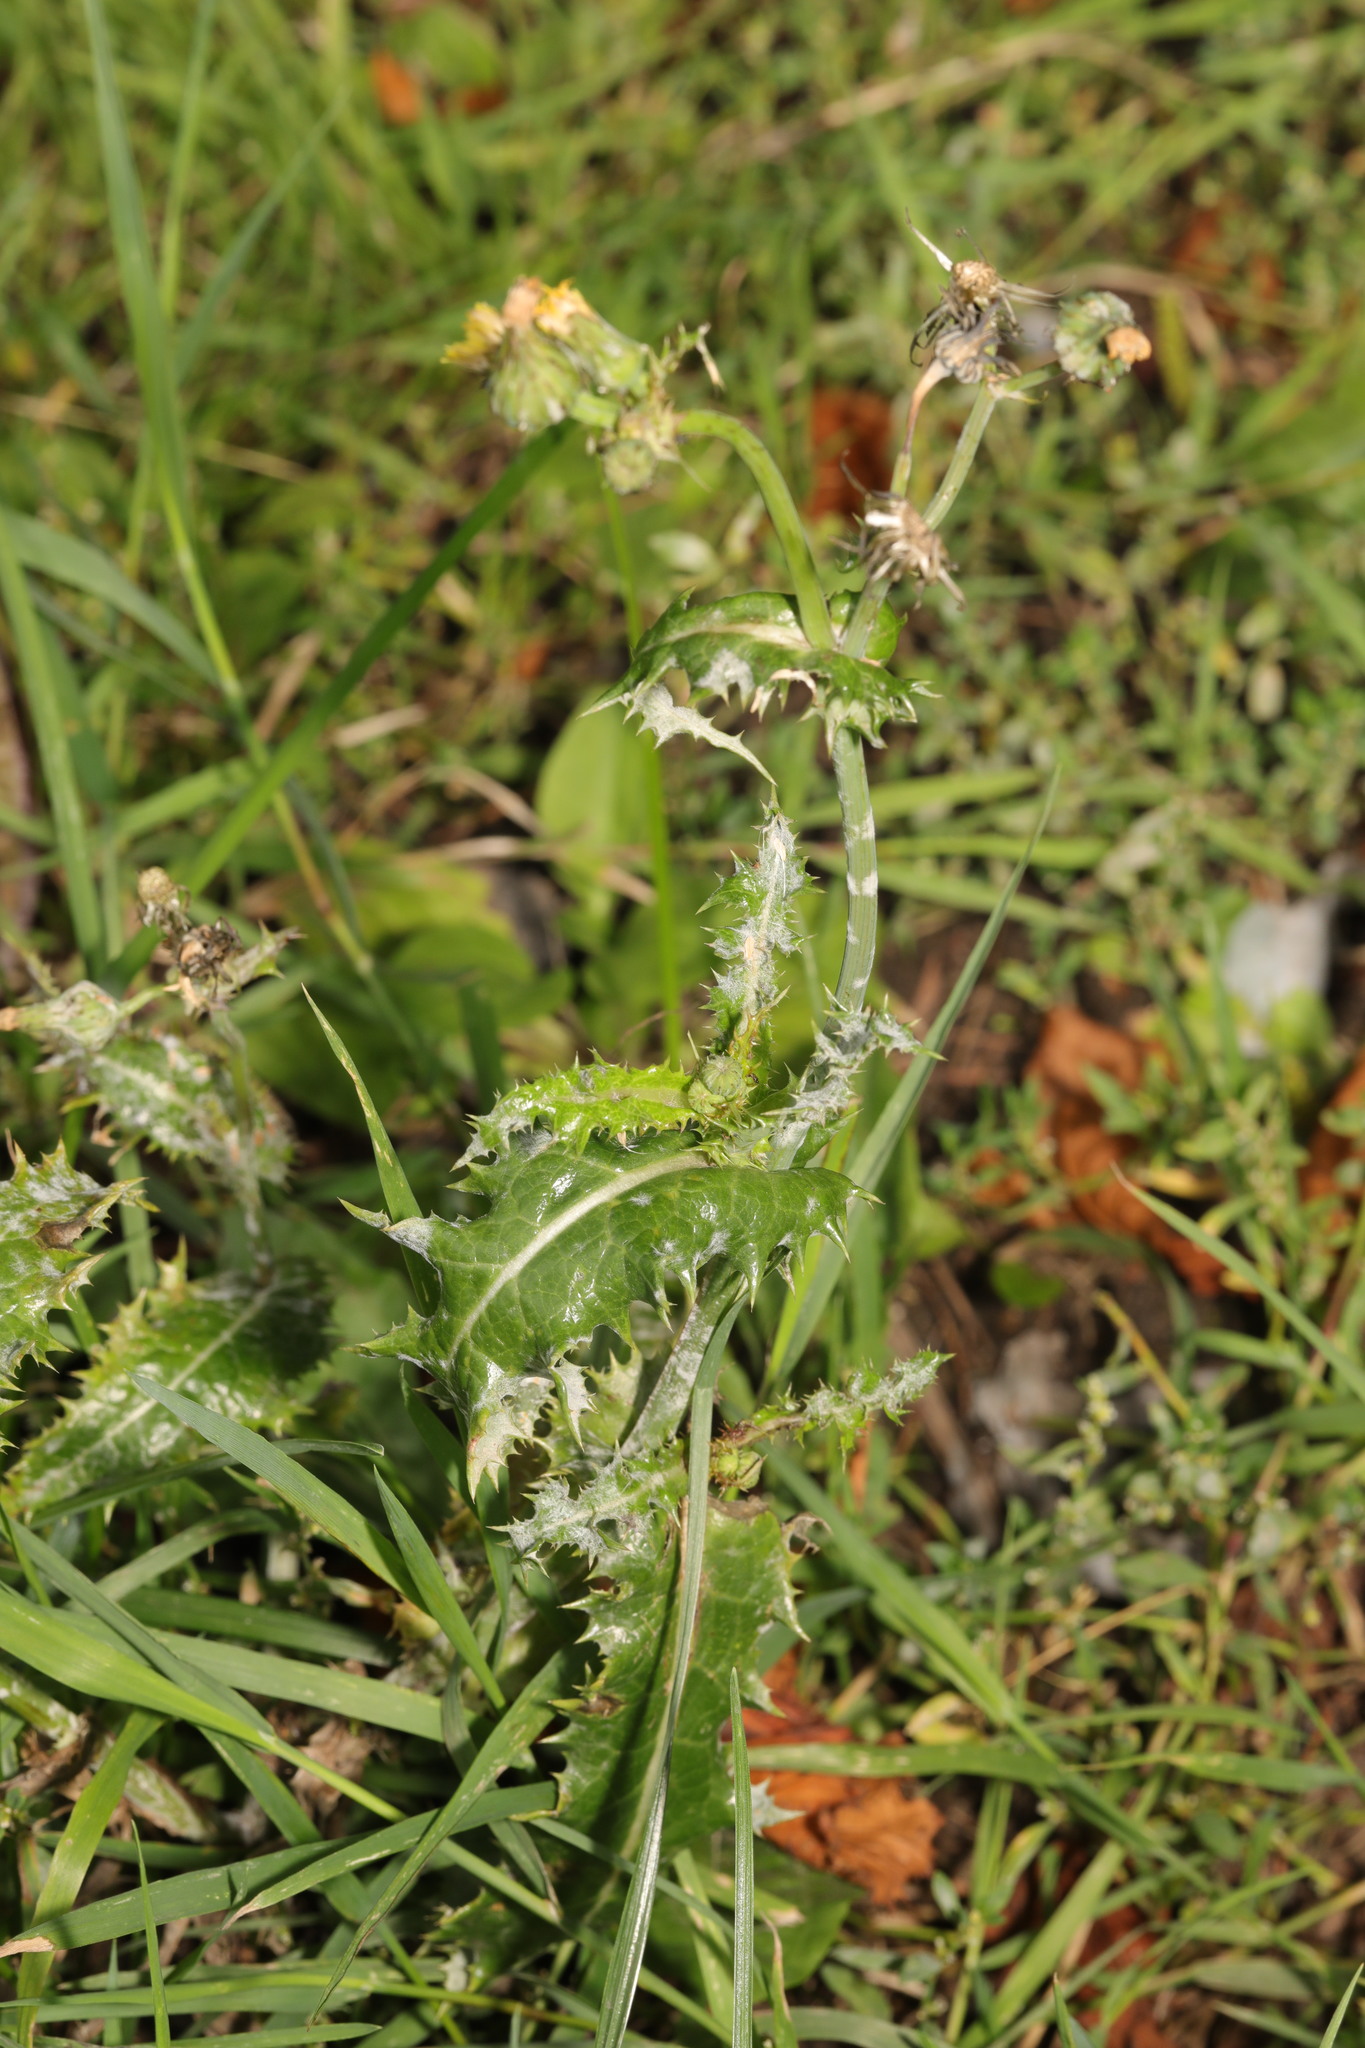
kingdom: Plantae
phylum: Tracheophyta
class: Magnoliopsida
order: Asterales
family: Asteraceae
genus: Sonchus
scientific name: Sonchus asper
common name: Prickly sow-thistle
